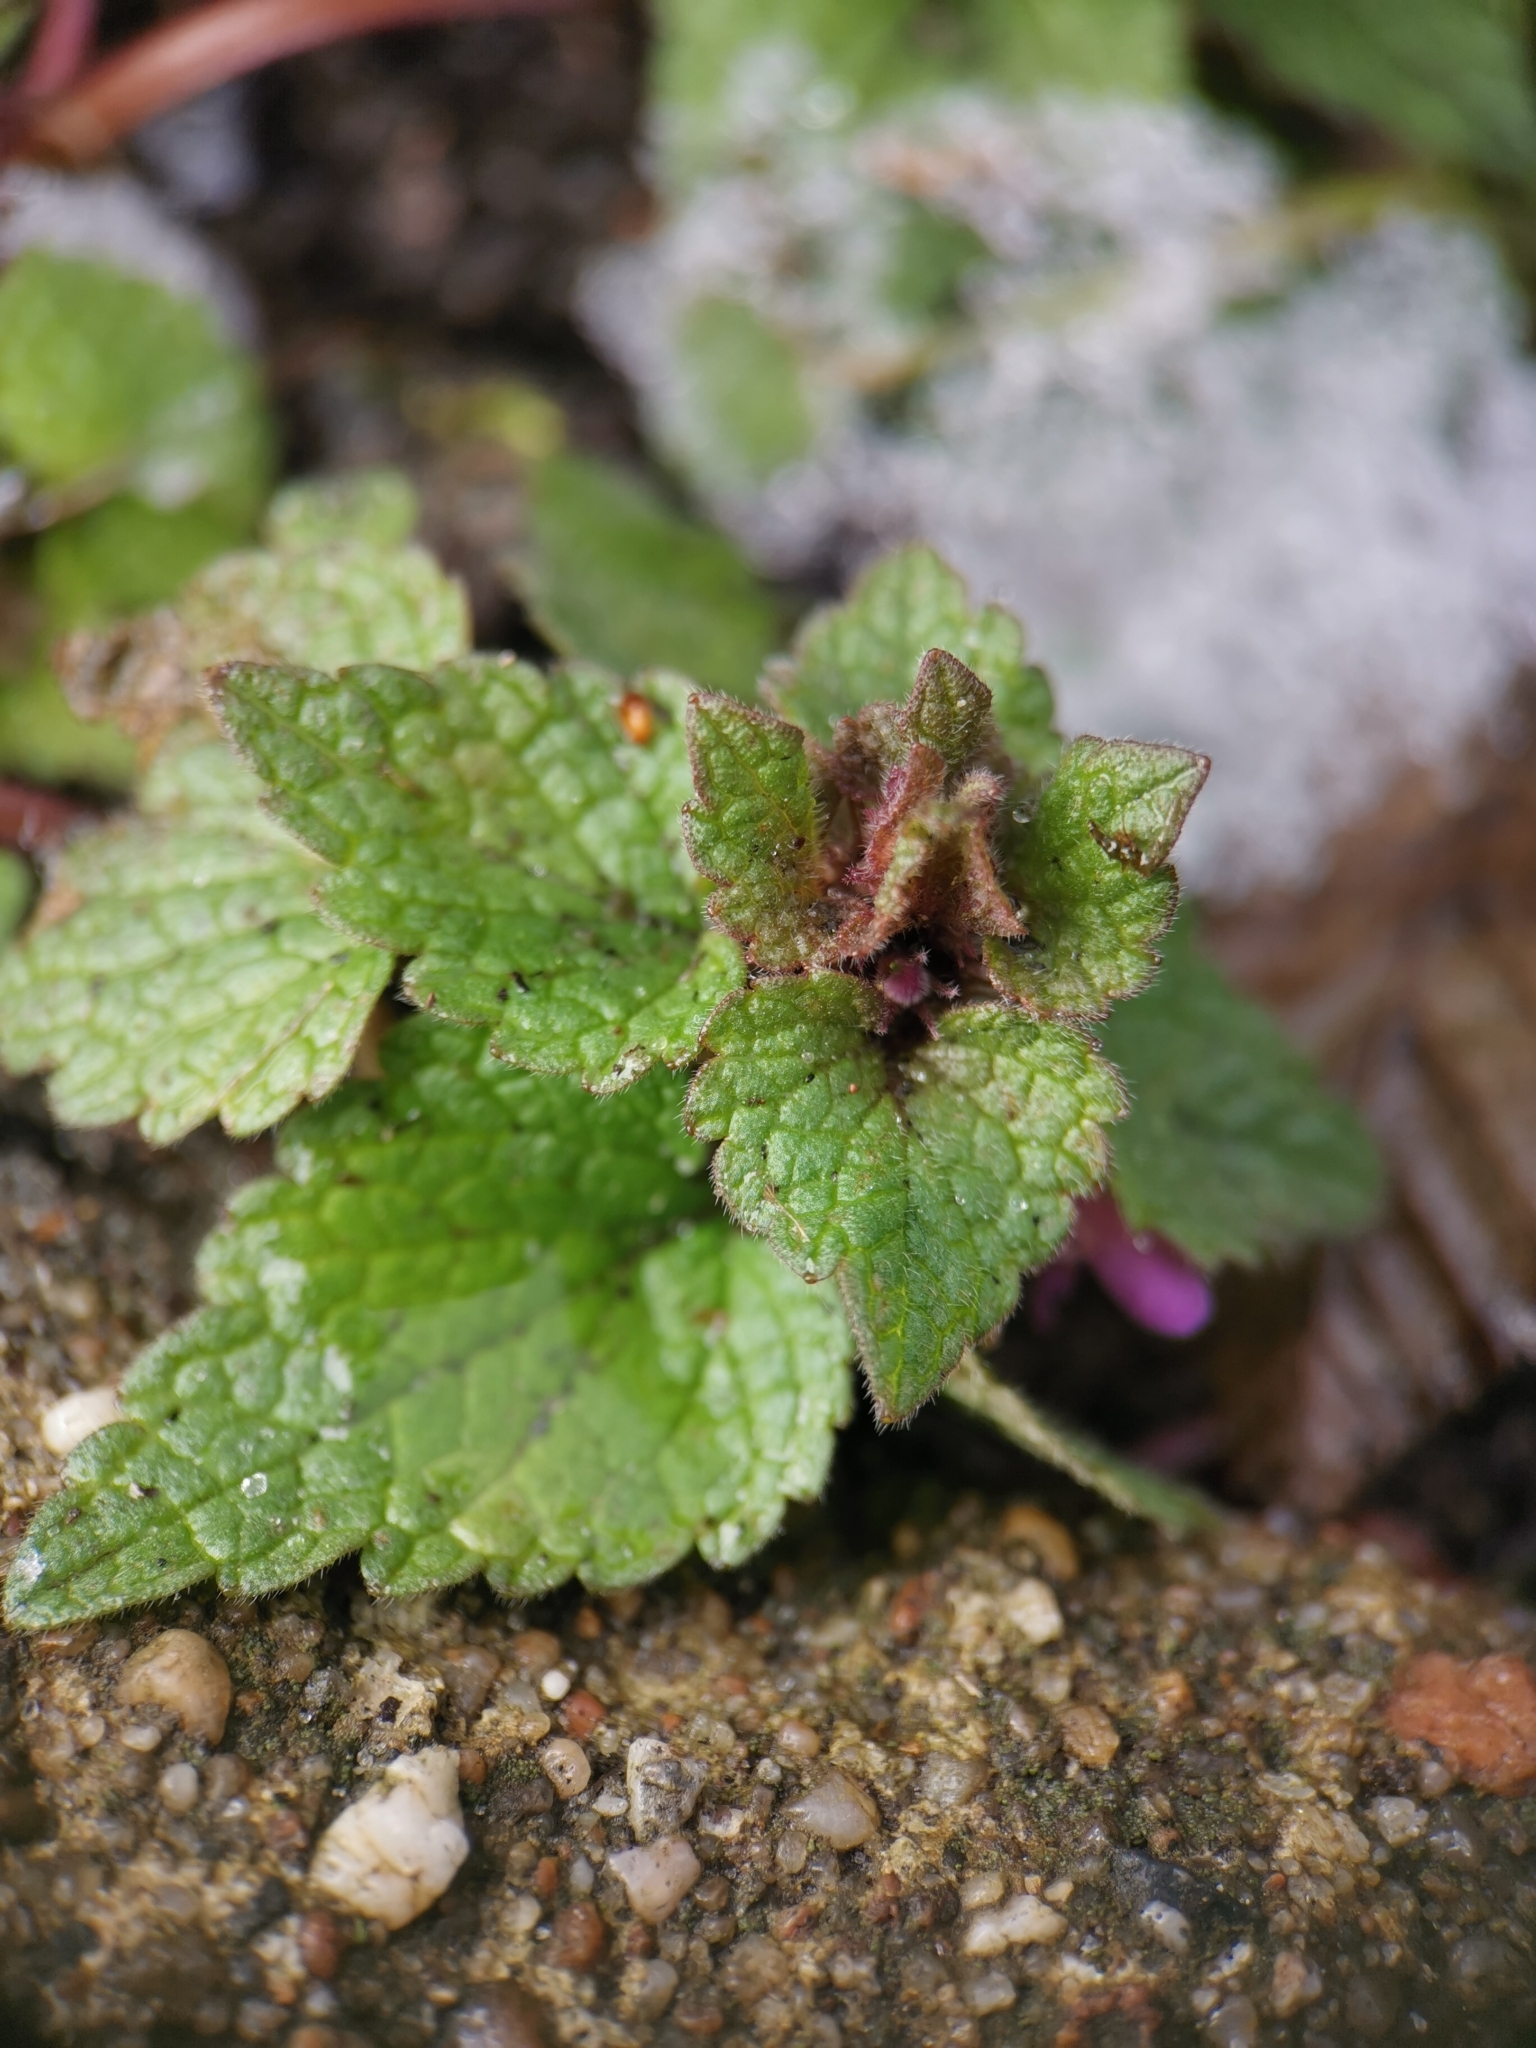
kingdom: Plantae
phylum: Tracheophyta
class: Magnoliopsida
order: Lamiales
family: Lamiaceae
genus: Lamium
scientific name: Lamium purpureum
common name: Red dead-nettle
